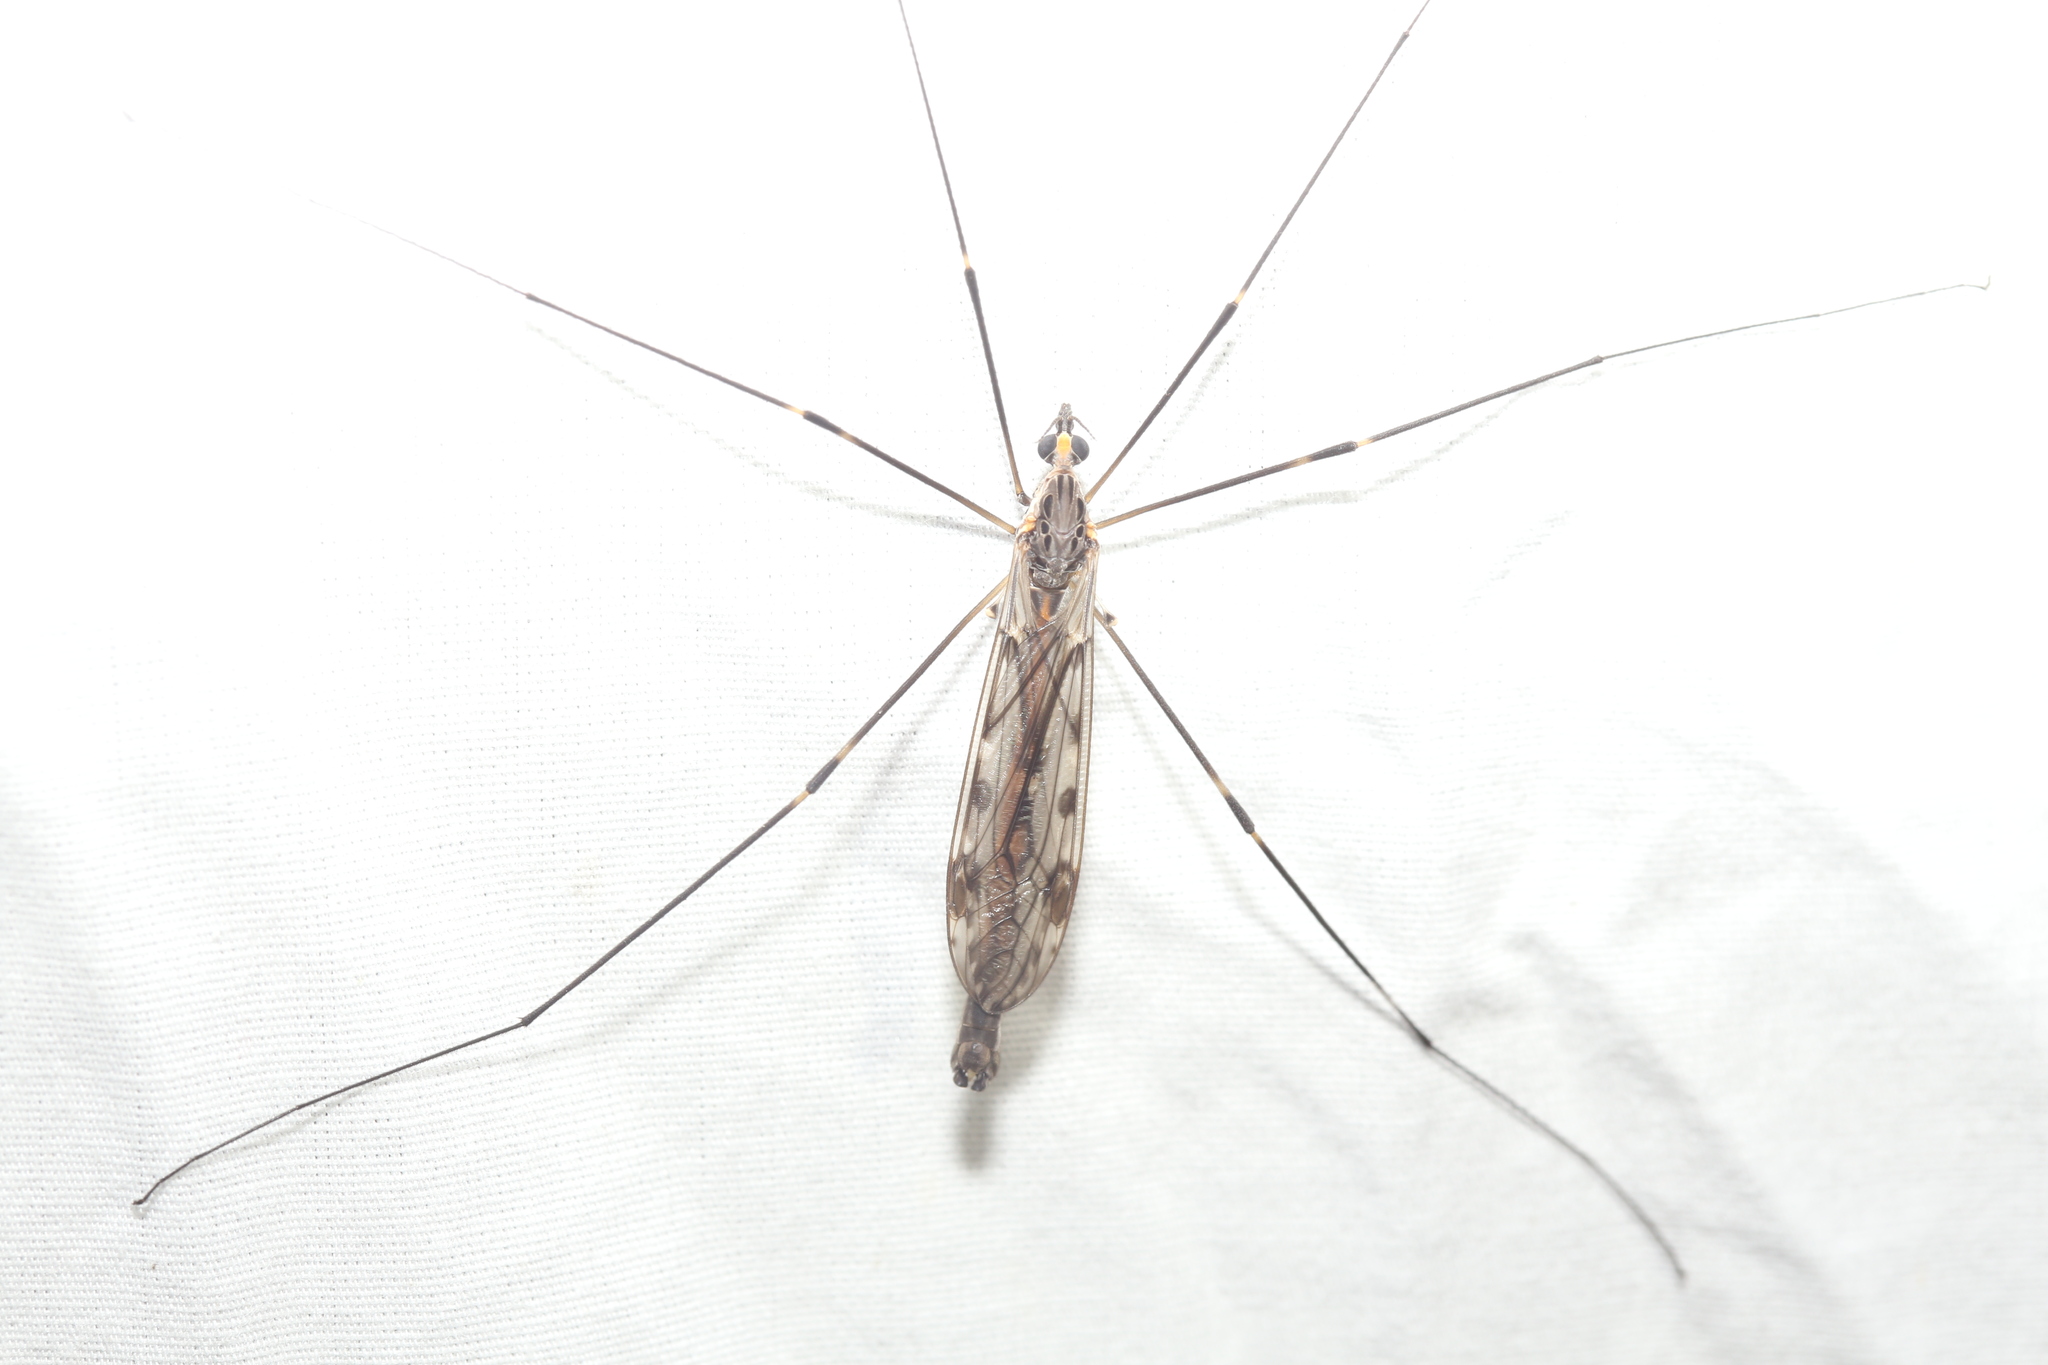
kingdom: Animalia
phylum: Arthropoda
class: Insecta
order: Diptera
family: Tipulidae
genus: Tipula
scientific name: Tipula abdominalis
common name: Giant crane fly
